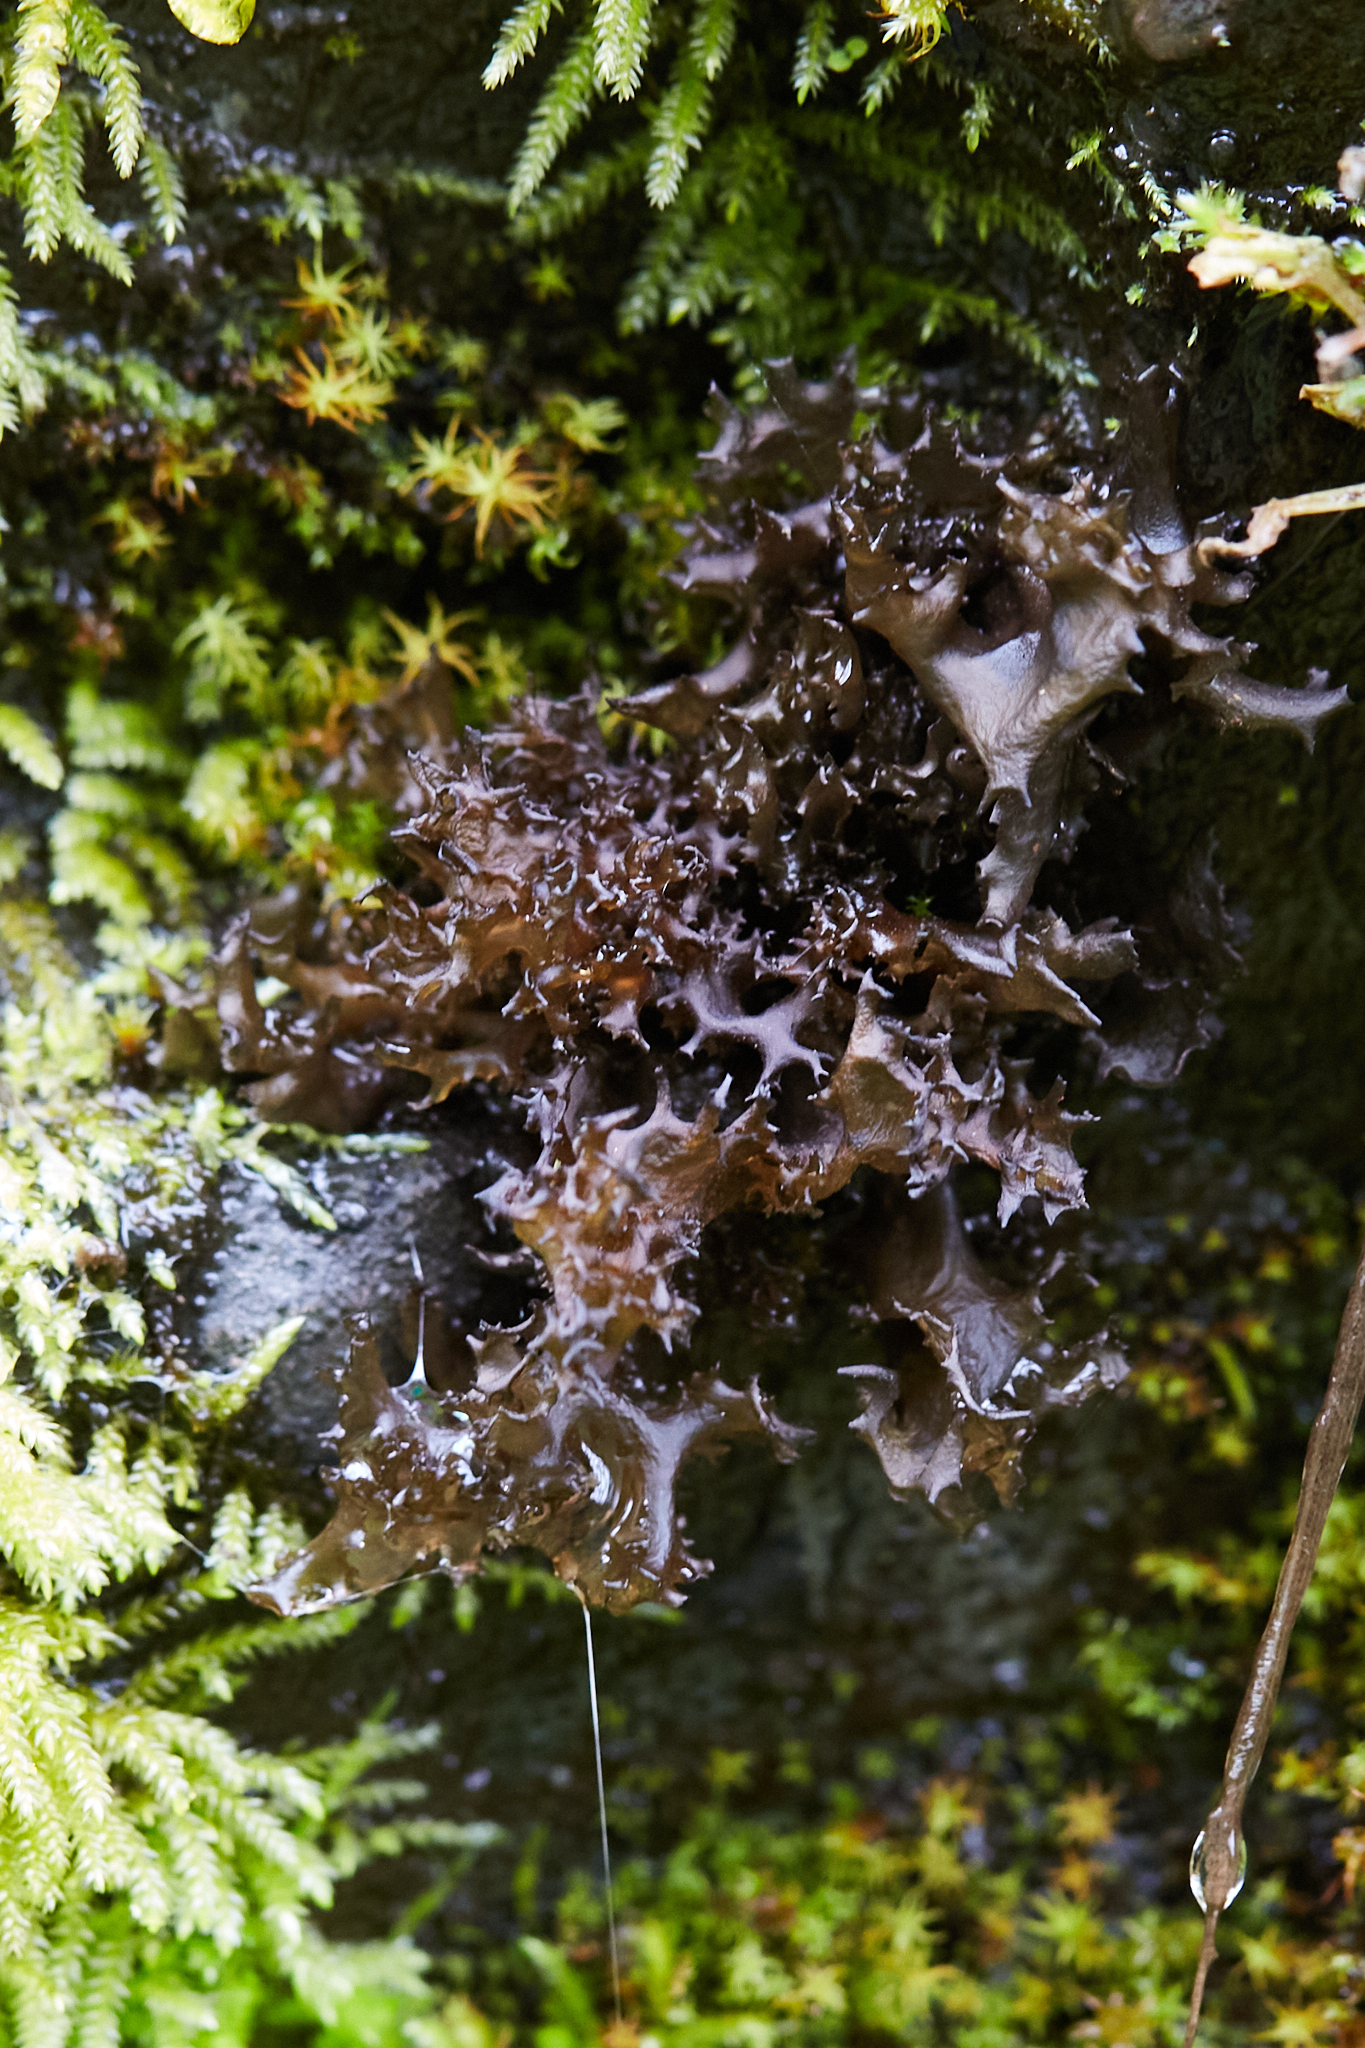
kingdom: Fungi
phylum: Ascomycota
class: Lecanoromycetes
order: Peltigerales
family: Collemataceae
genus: Scytinium
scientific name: Scytinium palmatum
